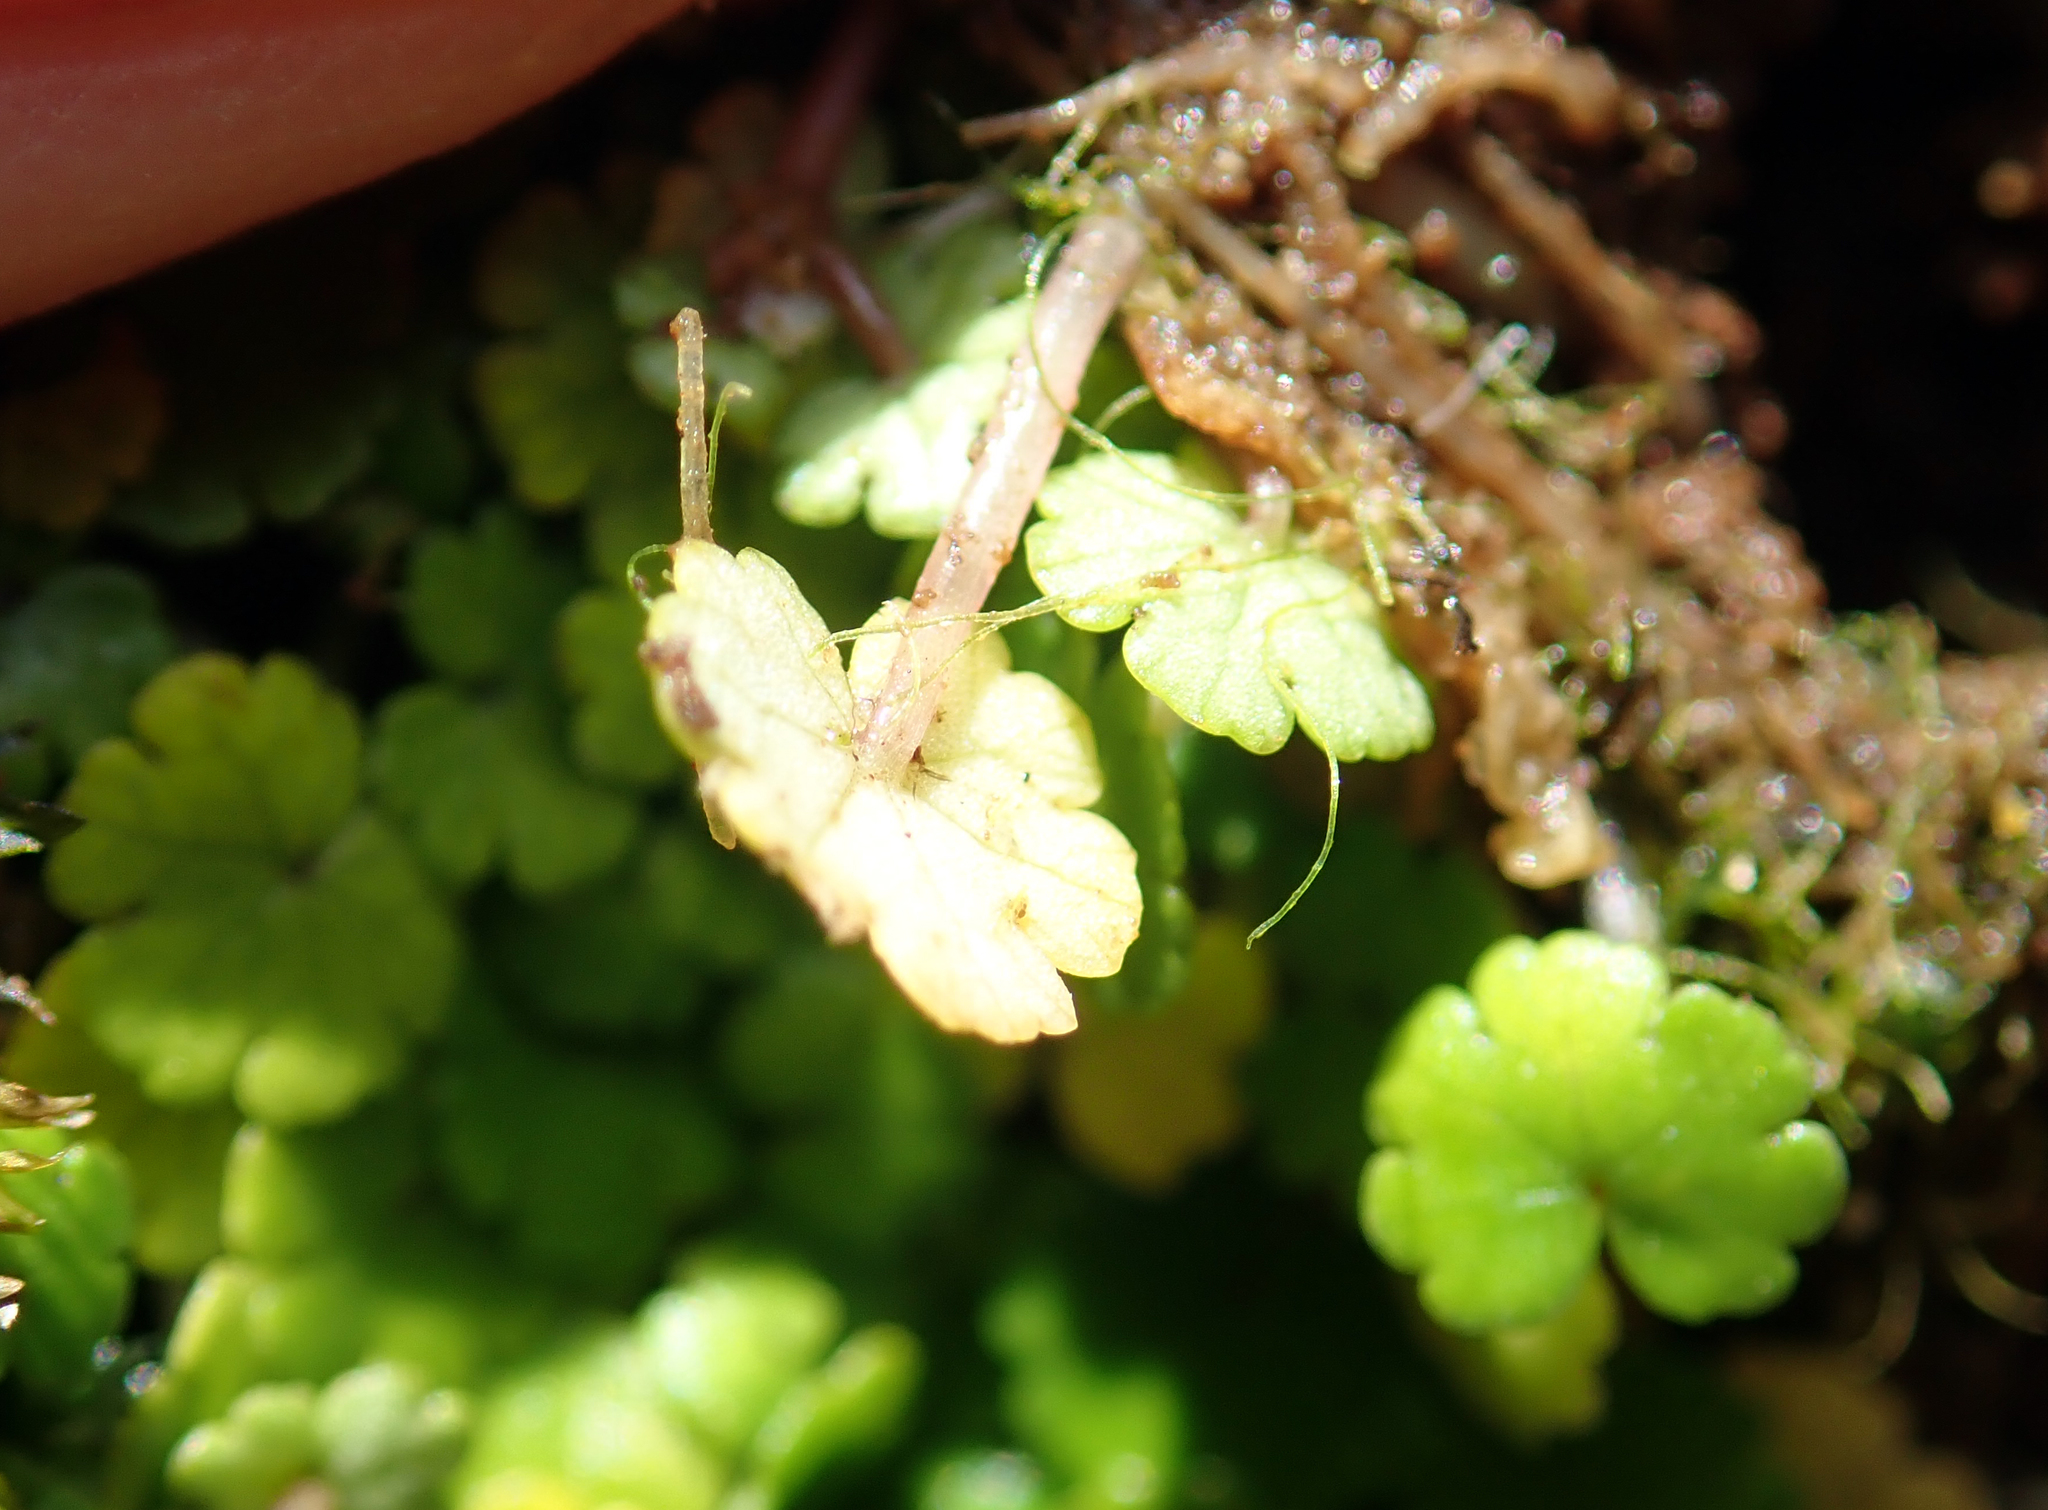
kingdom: Plantae
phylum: Tracheophyta
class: Magnoliopsida
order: Apiales
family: Araliaceae
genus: Hydrocotyle
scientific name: Hydrocotyle microphylla
